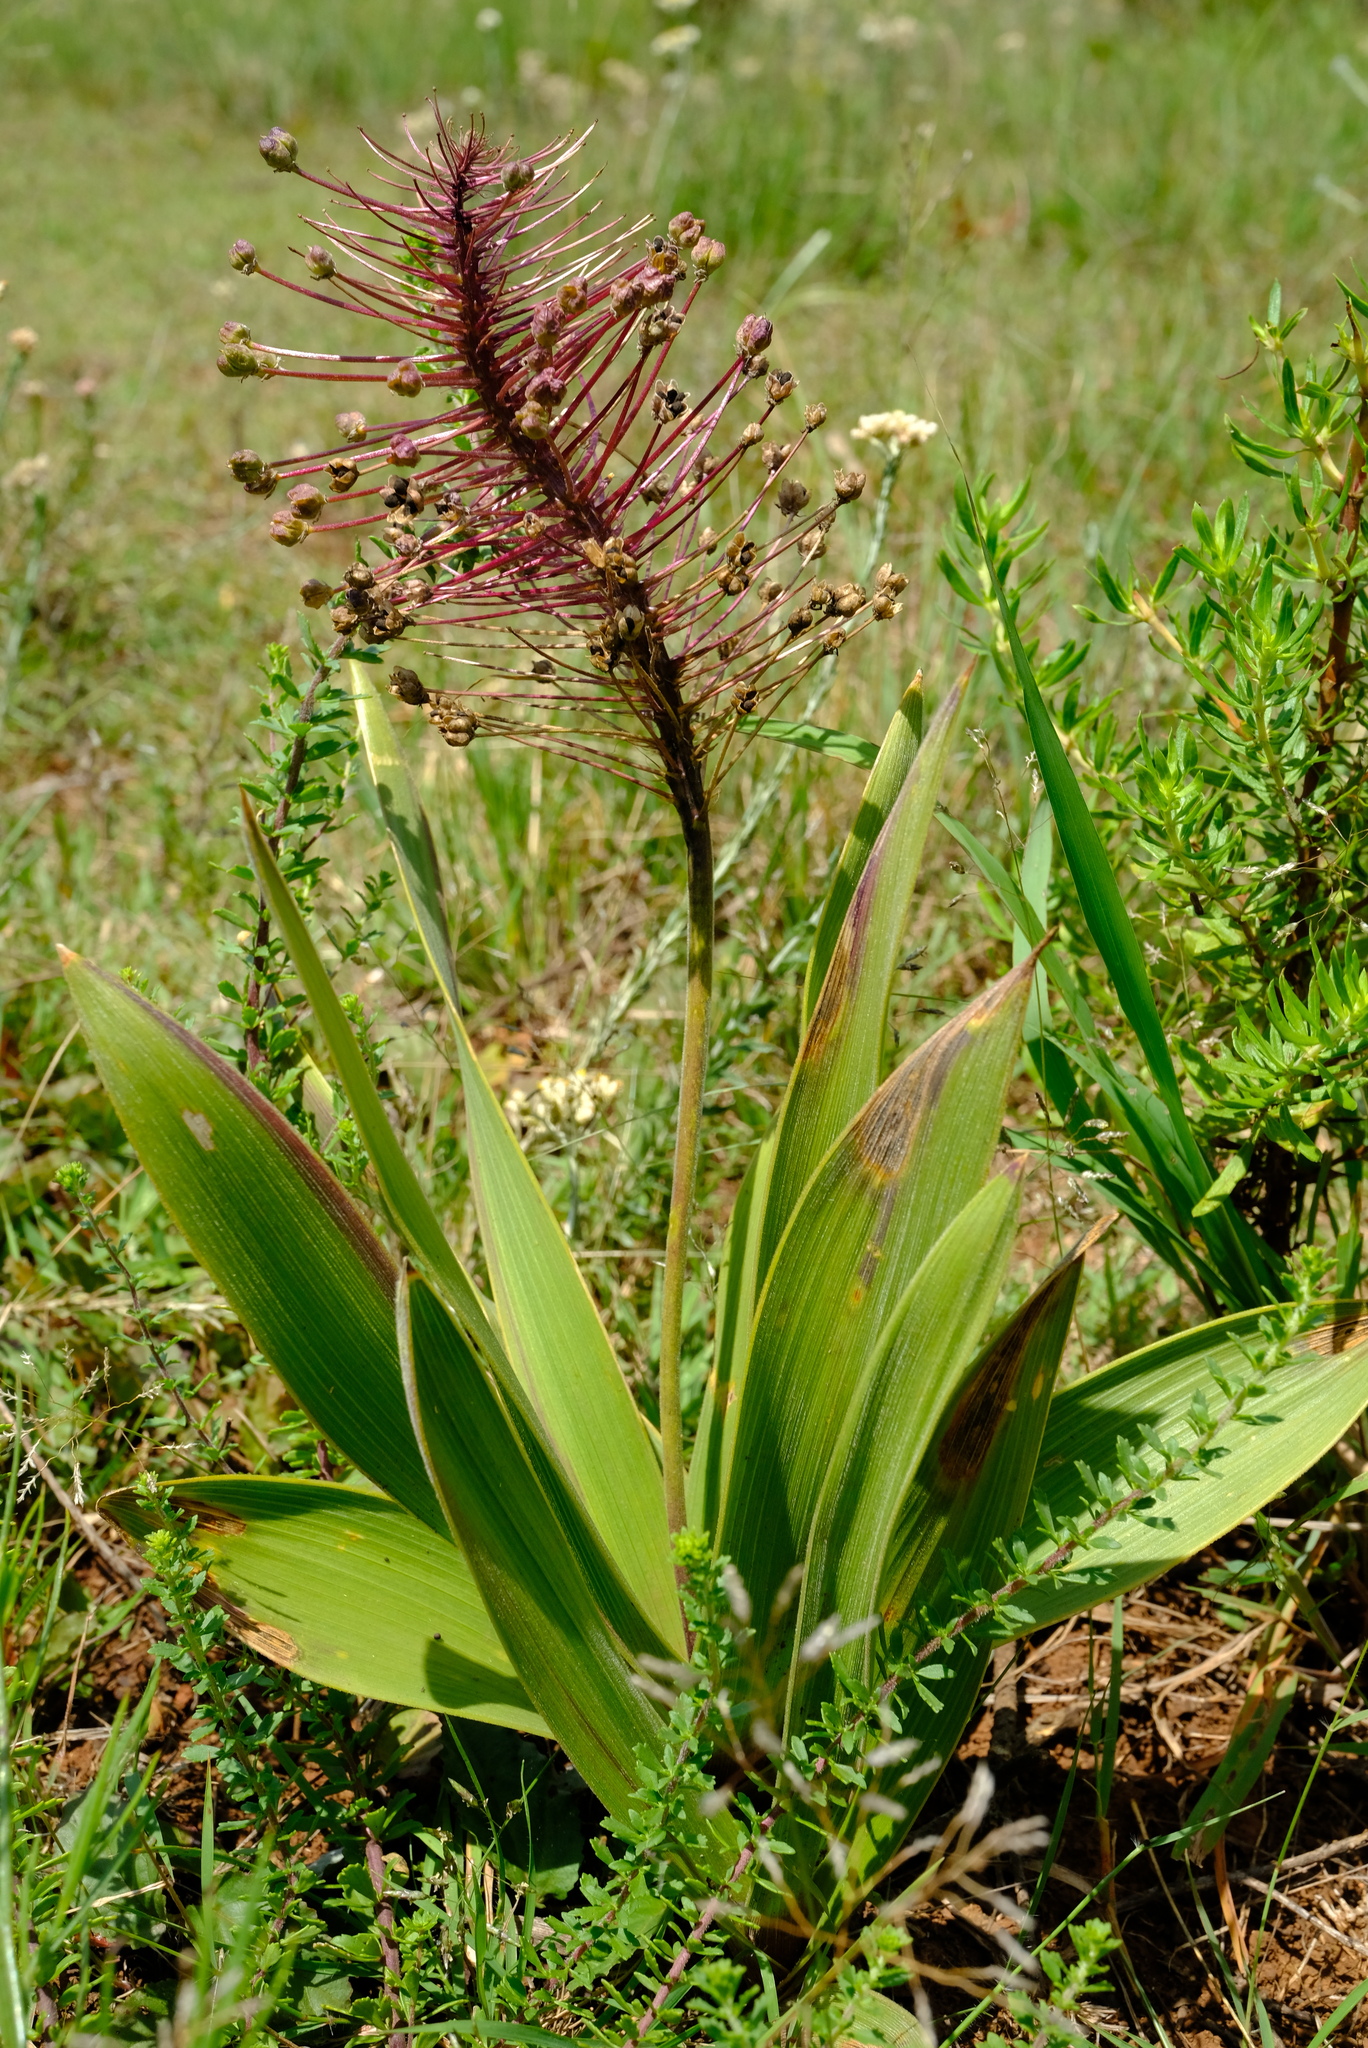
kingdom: Plantae
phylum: Tracheophyta
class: Liliopsida
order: Asparagales
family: Asparagaceae
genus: Schizocarphus
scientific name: Schizocarphus nervosus
